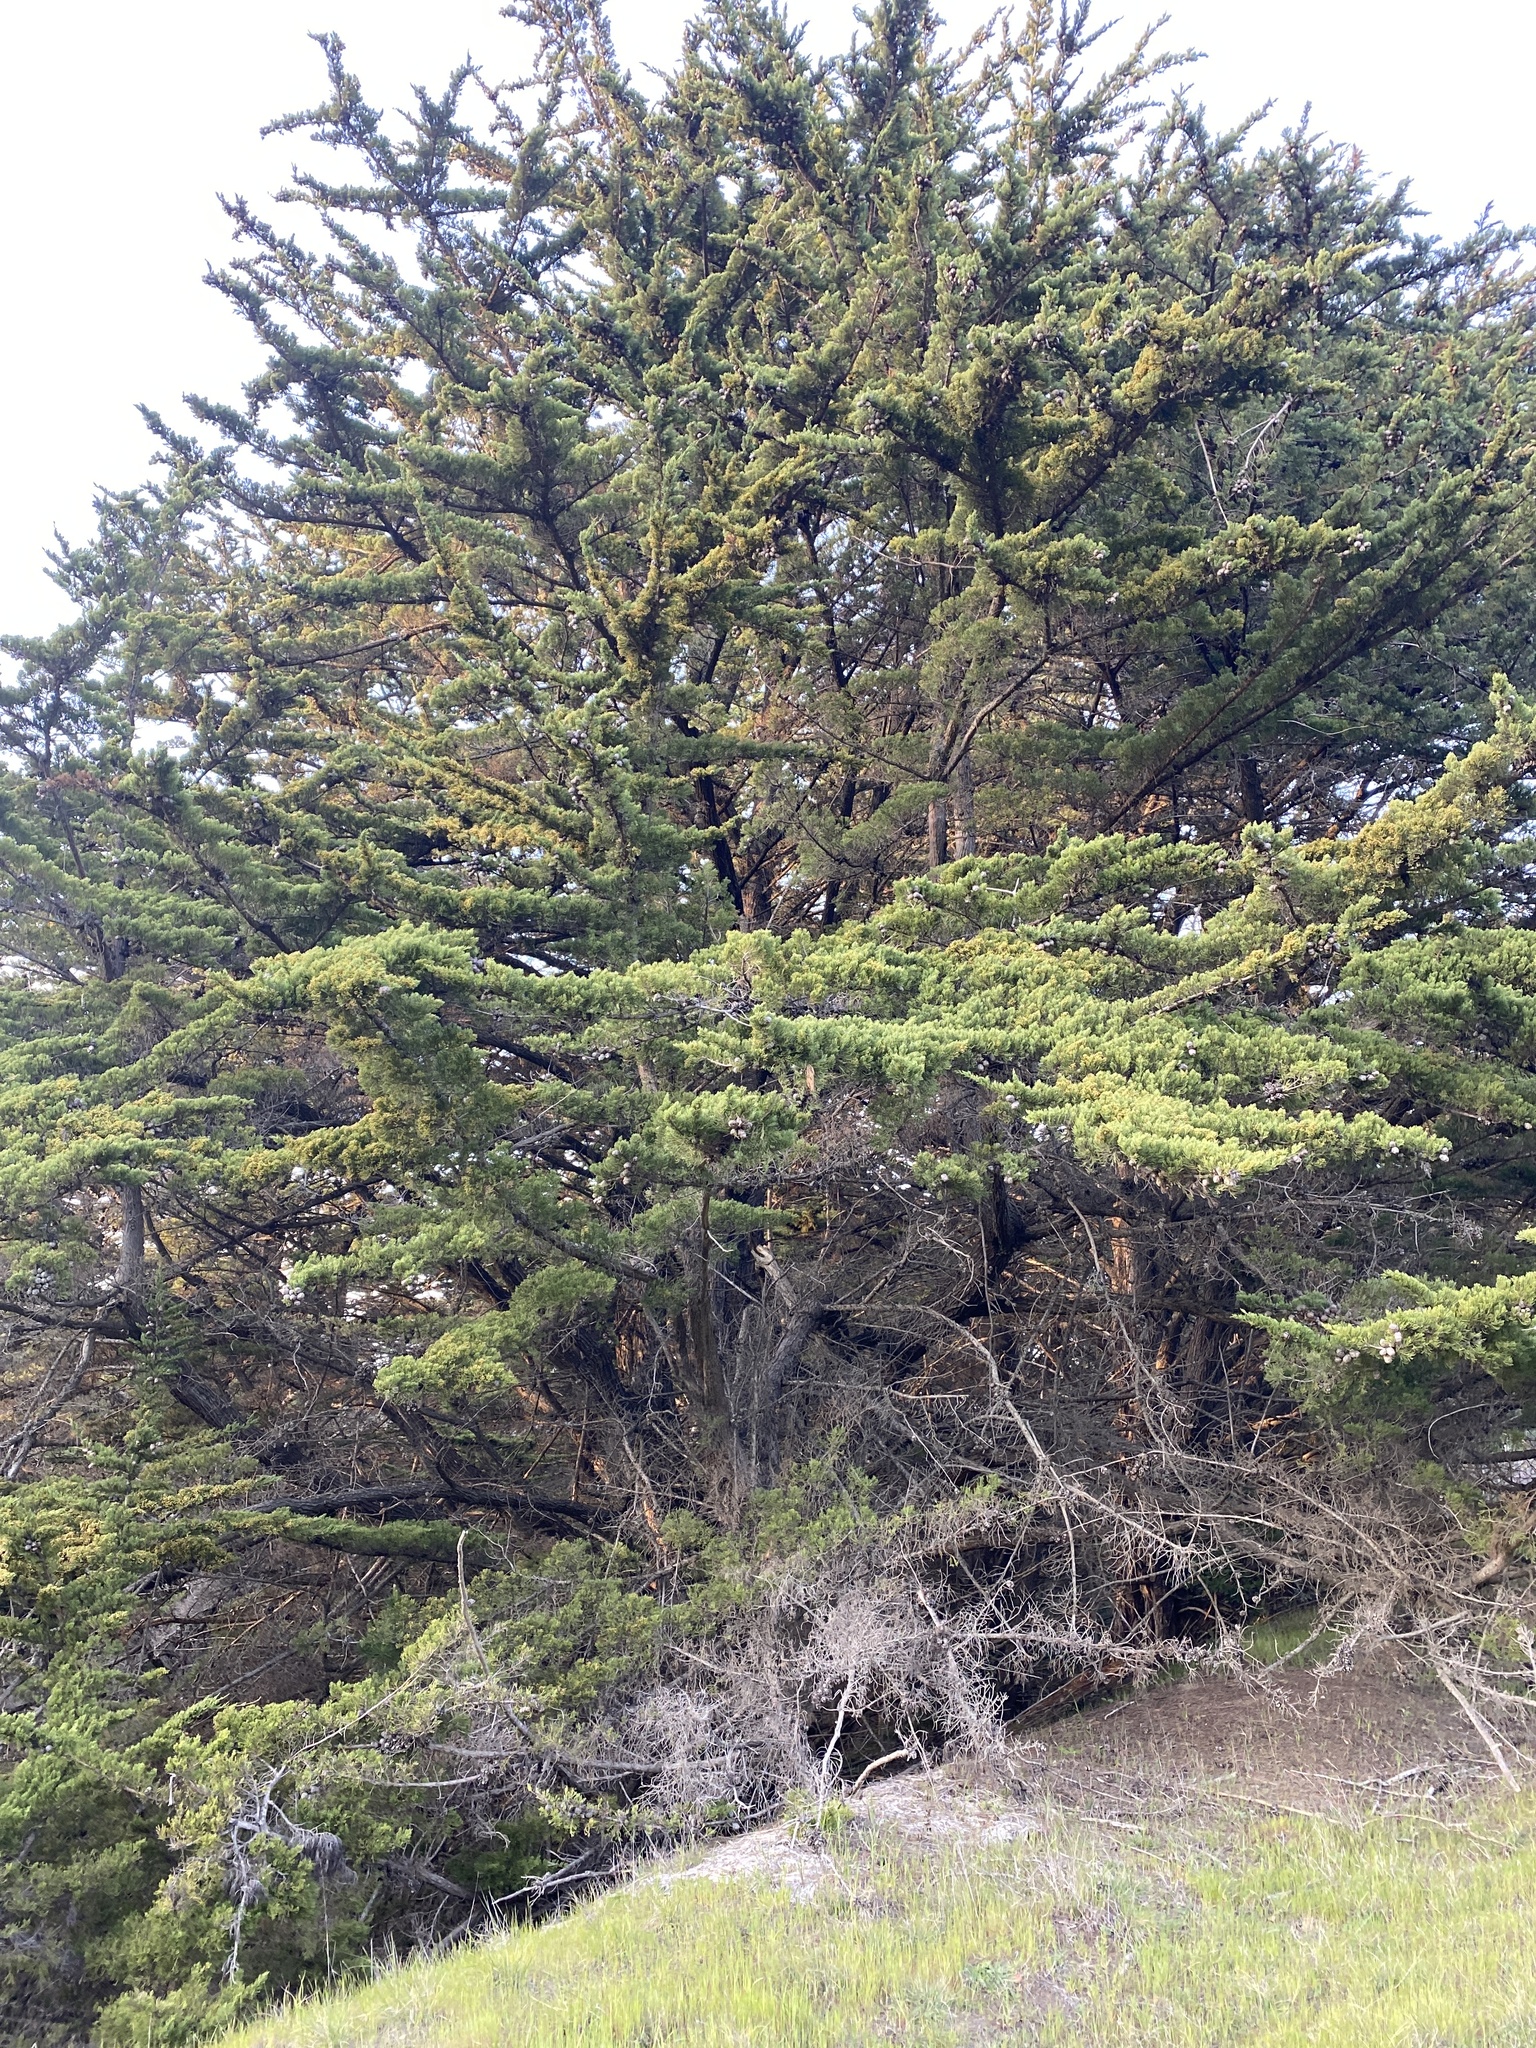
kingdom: Plantae
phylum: Tracheophyta
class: Pinopsida
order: Pinales
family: Cupressaceae
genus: Cupressus
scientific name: Cupressus macrocarpa
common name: Monterey cypress
